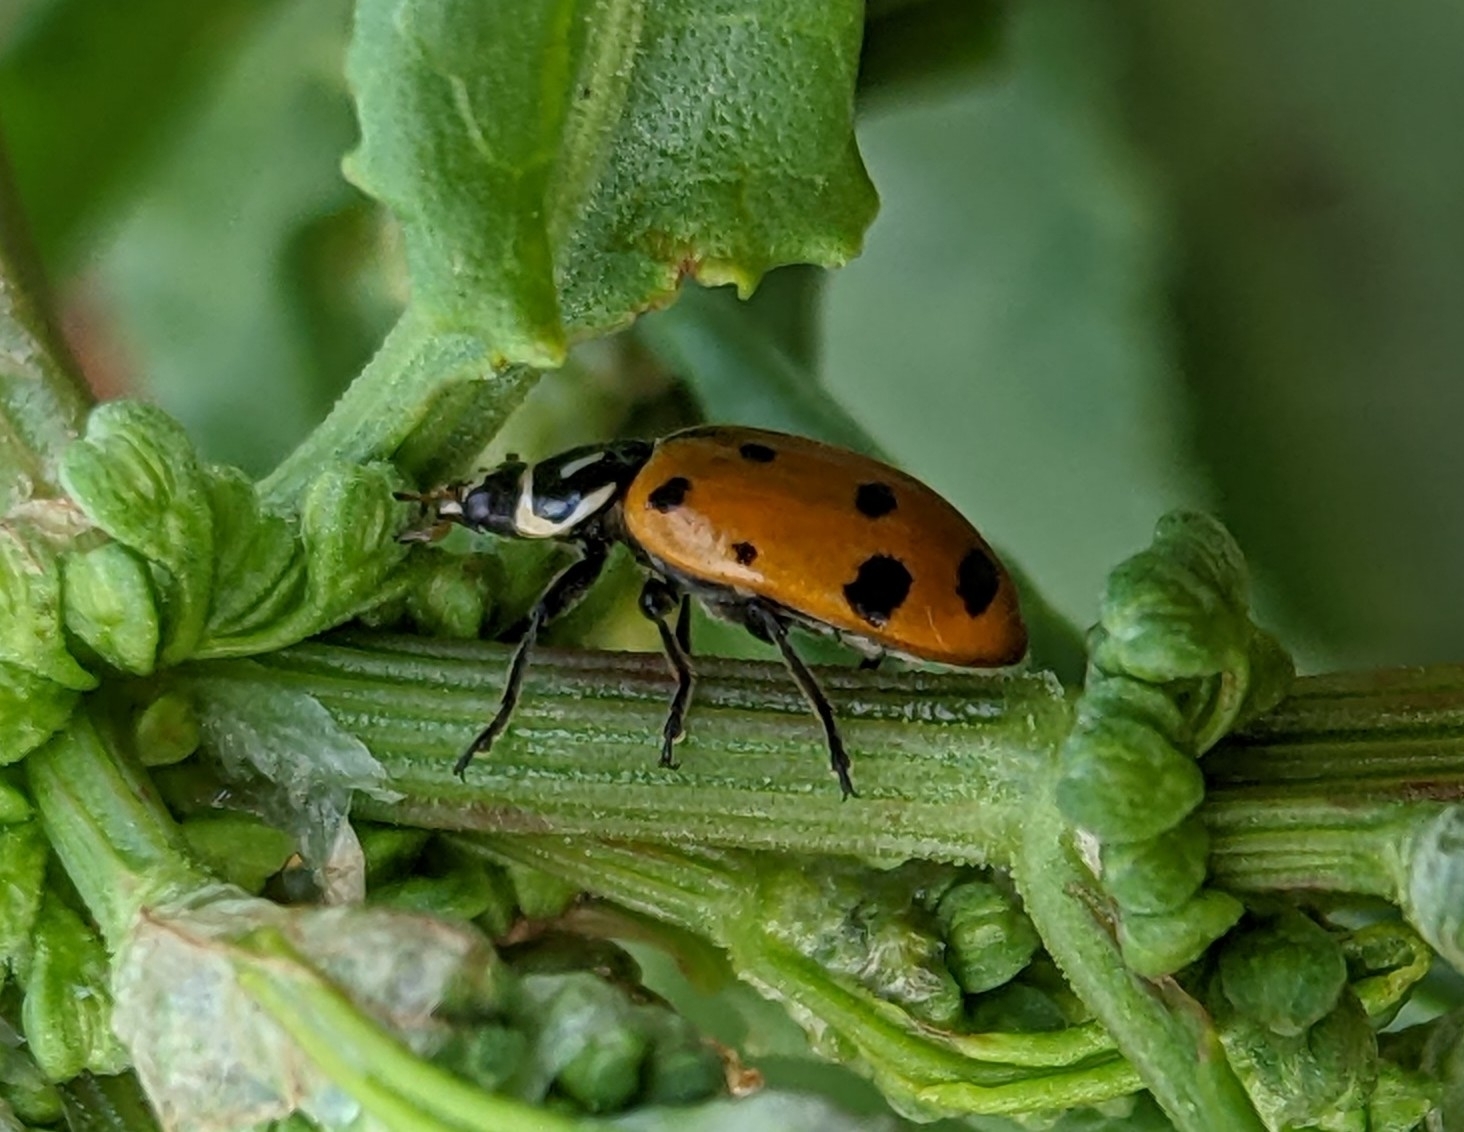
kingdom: Animalia
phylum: Arthropoda
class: Insecta
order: Coleoptera
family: Coccinellidae
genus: Hippodamia
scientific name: Hippodamia convergens
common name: Convergent lady beetle
